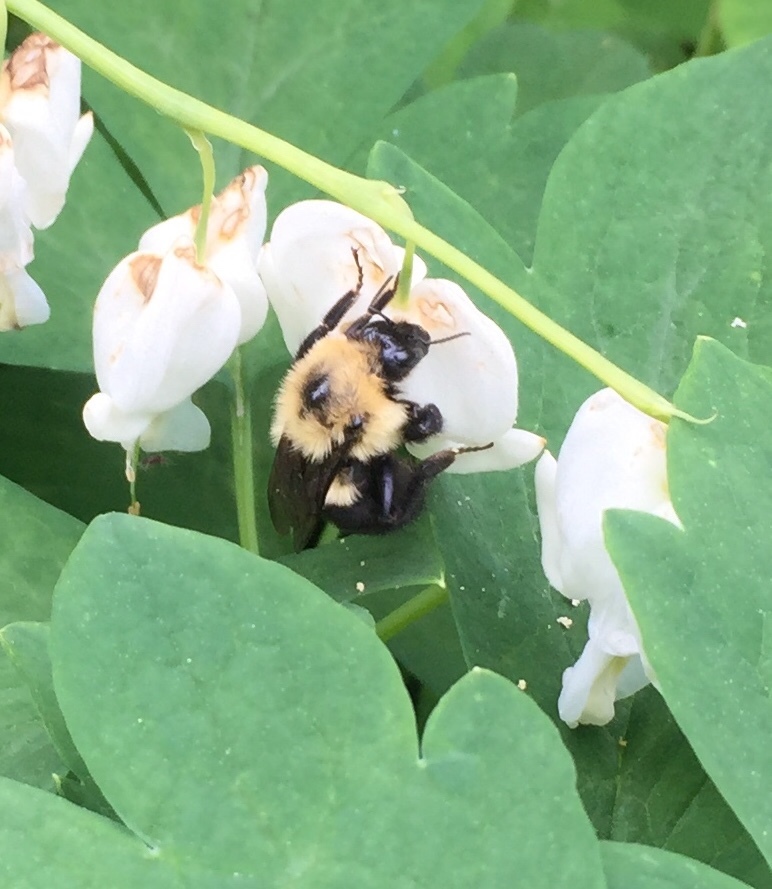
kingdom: Animalia
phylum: Arthropoda
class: Insecta
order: Hymenoptera
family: Apidae
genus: Bombus
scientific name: Bombus bimaculatus
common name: Two-spotted bumble bee
